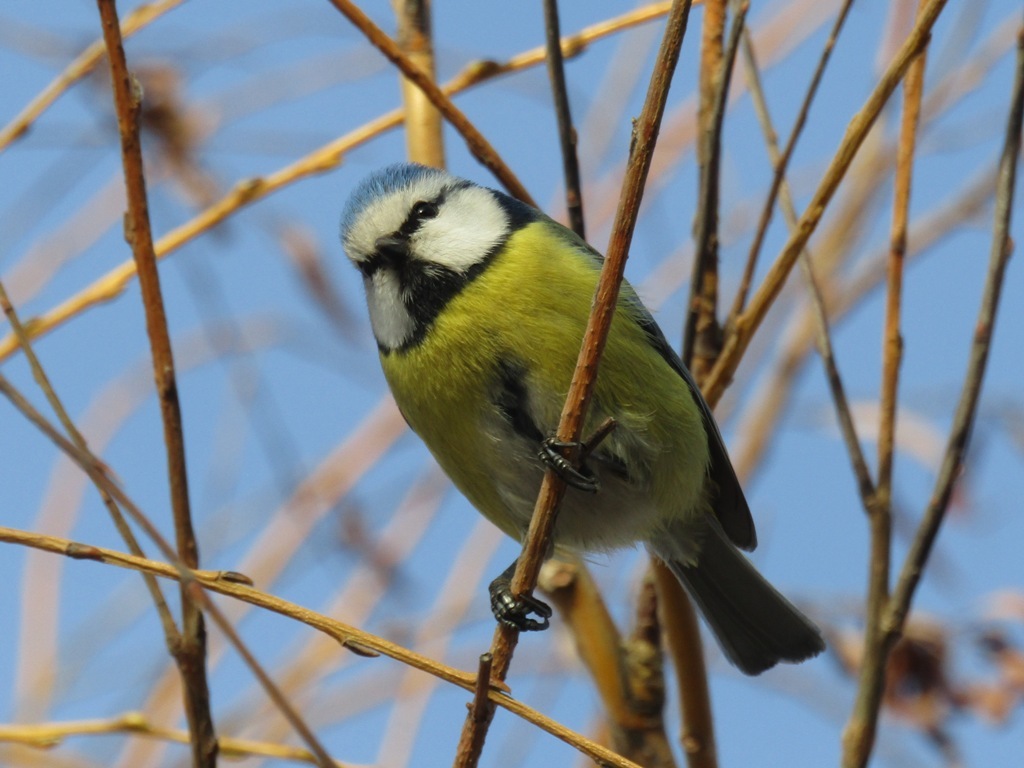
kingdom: Animalia
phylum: Chordata
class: Aves
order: Passeriformes
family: Paridae
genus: Cyanistes
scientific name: Cyanistes caeruleus
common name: Eurasian blue tit
